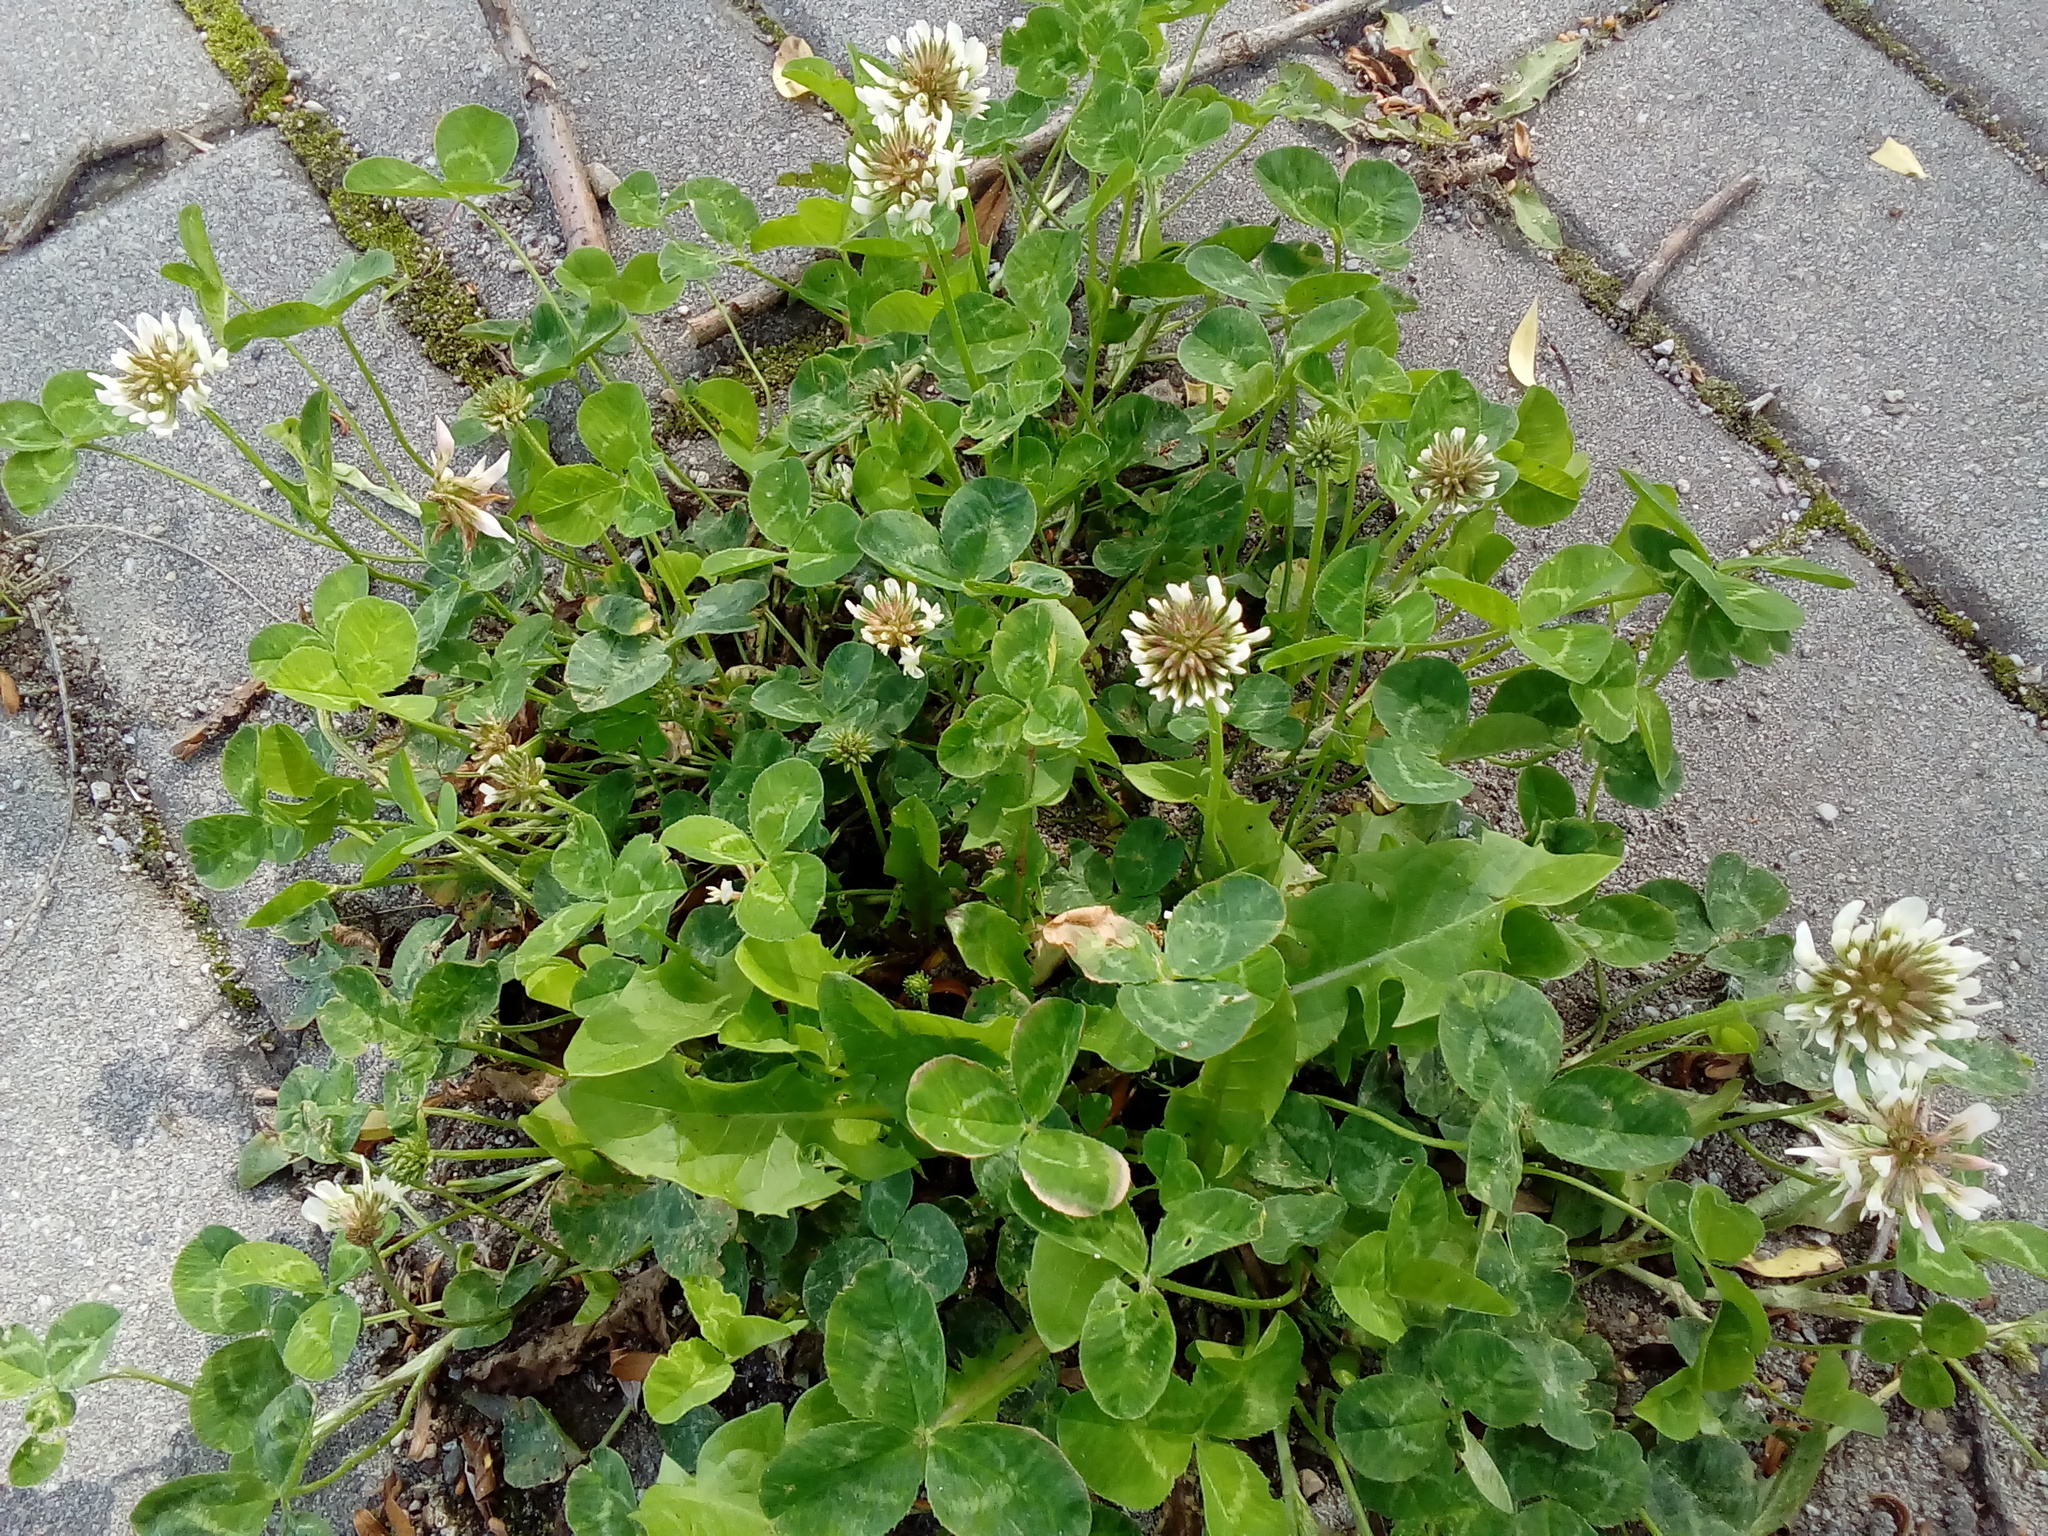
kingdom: Plantae
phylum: Tracheophyta
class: Magnoliopsida
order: Fabales
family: Fabaceae
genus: Trifolium
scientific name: Trifolium repens
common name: White clover
